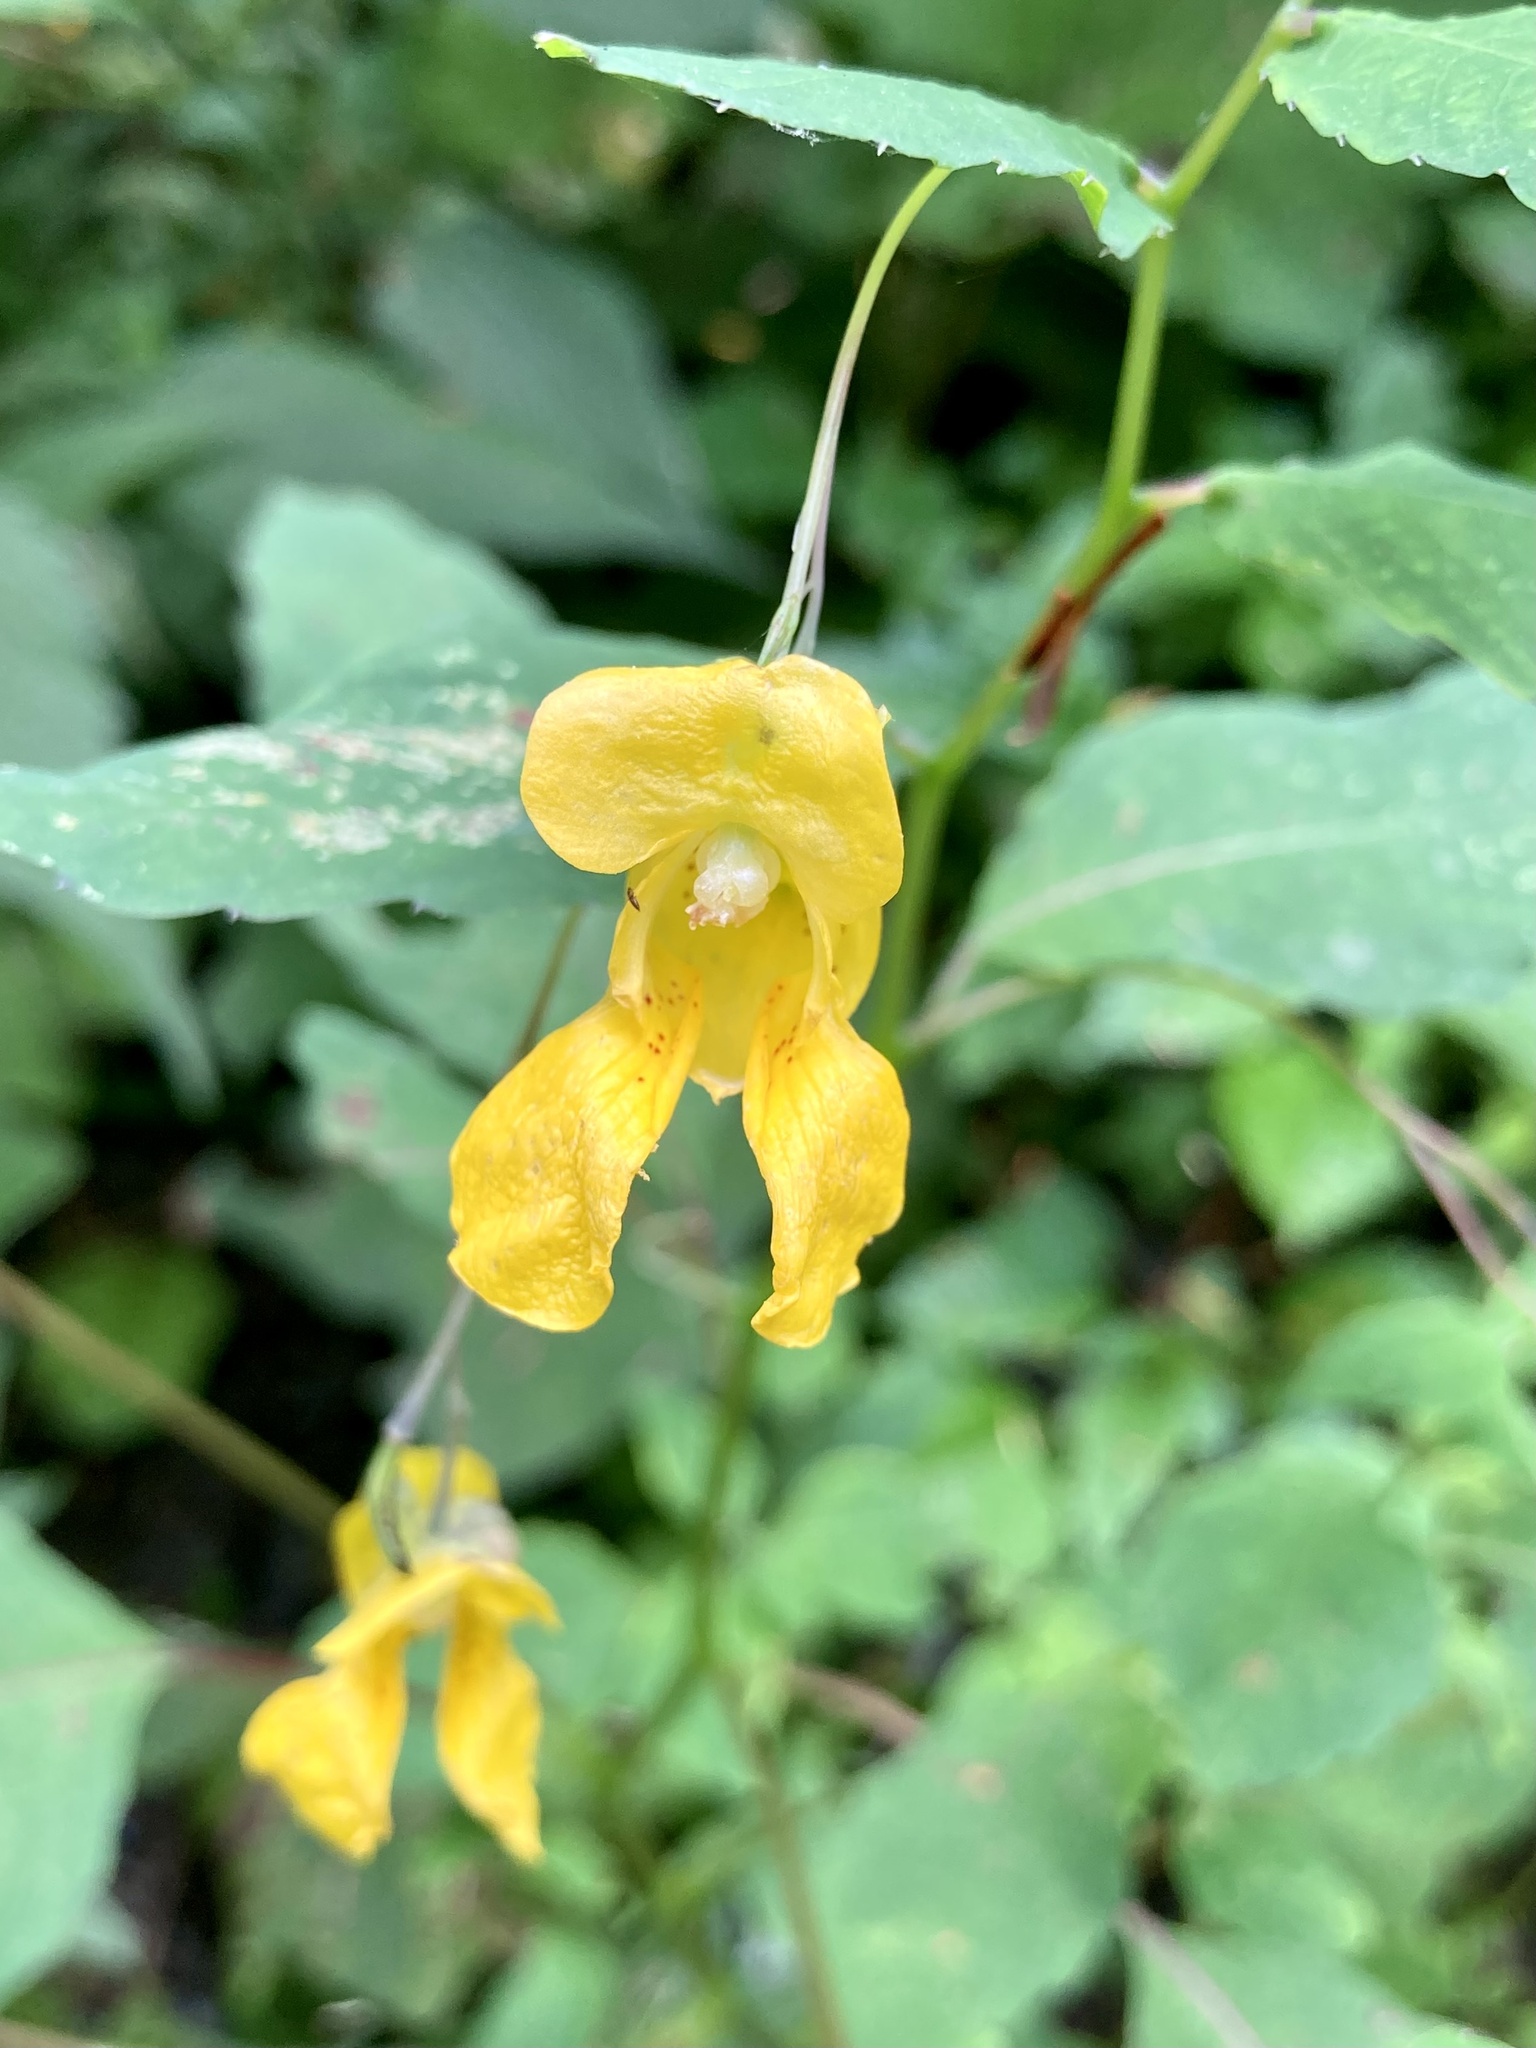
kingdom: Plantae
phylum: Tracheophyta
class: Magnoliopsida
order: Ericales
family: Balsaminaceae
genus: Impatiens
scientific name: Impatiens pallida
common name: Pale snapweed
